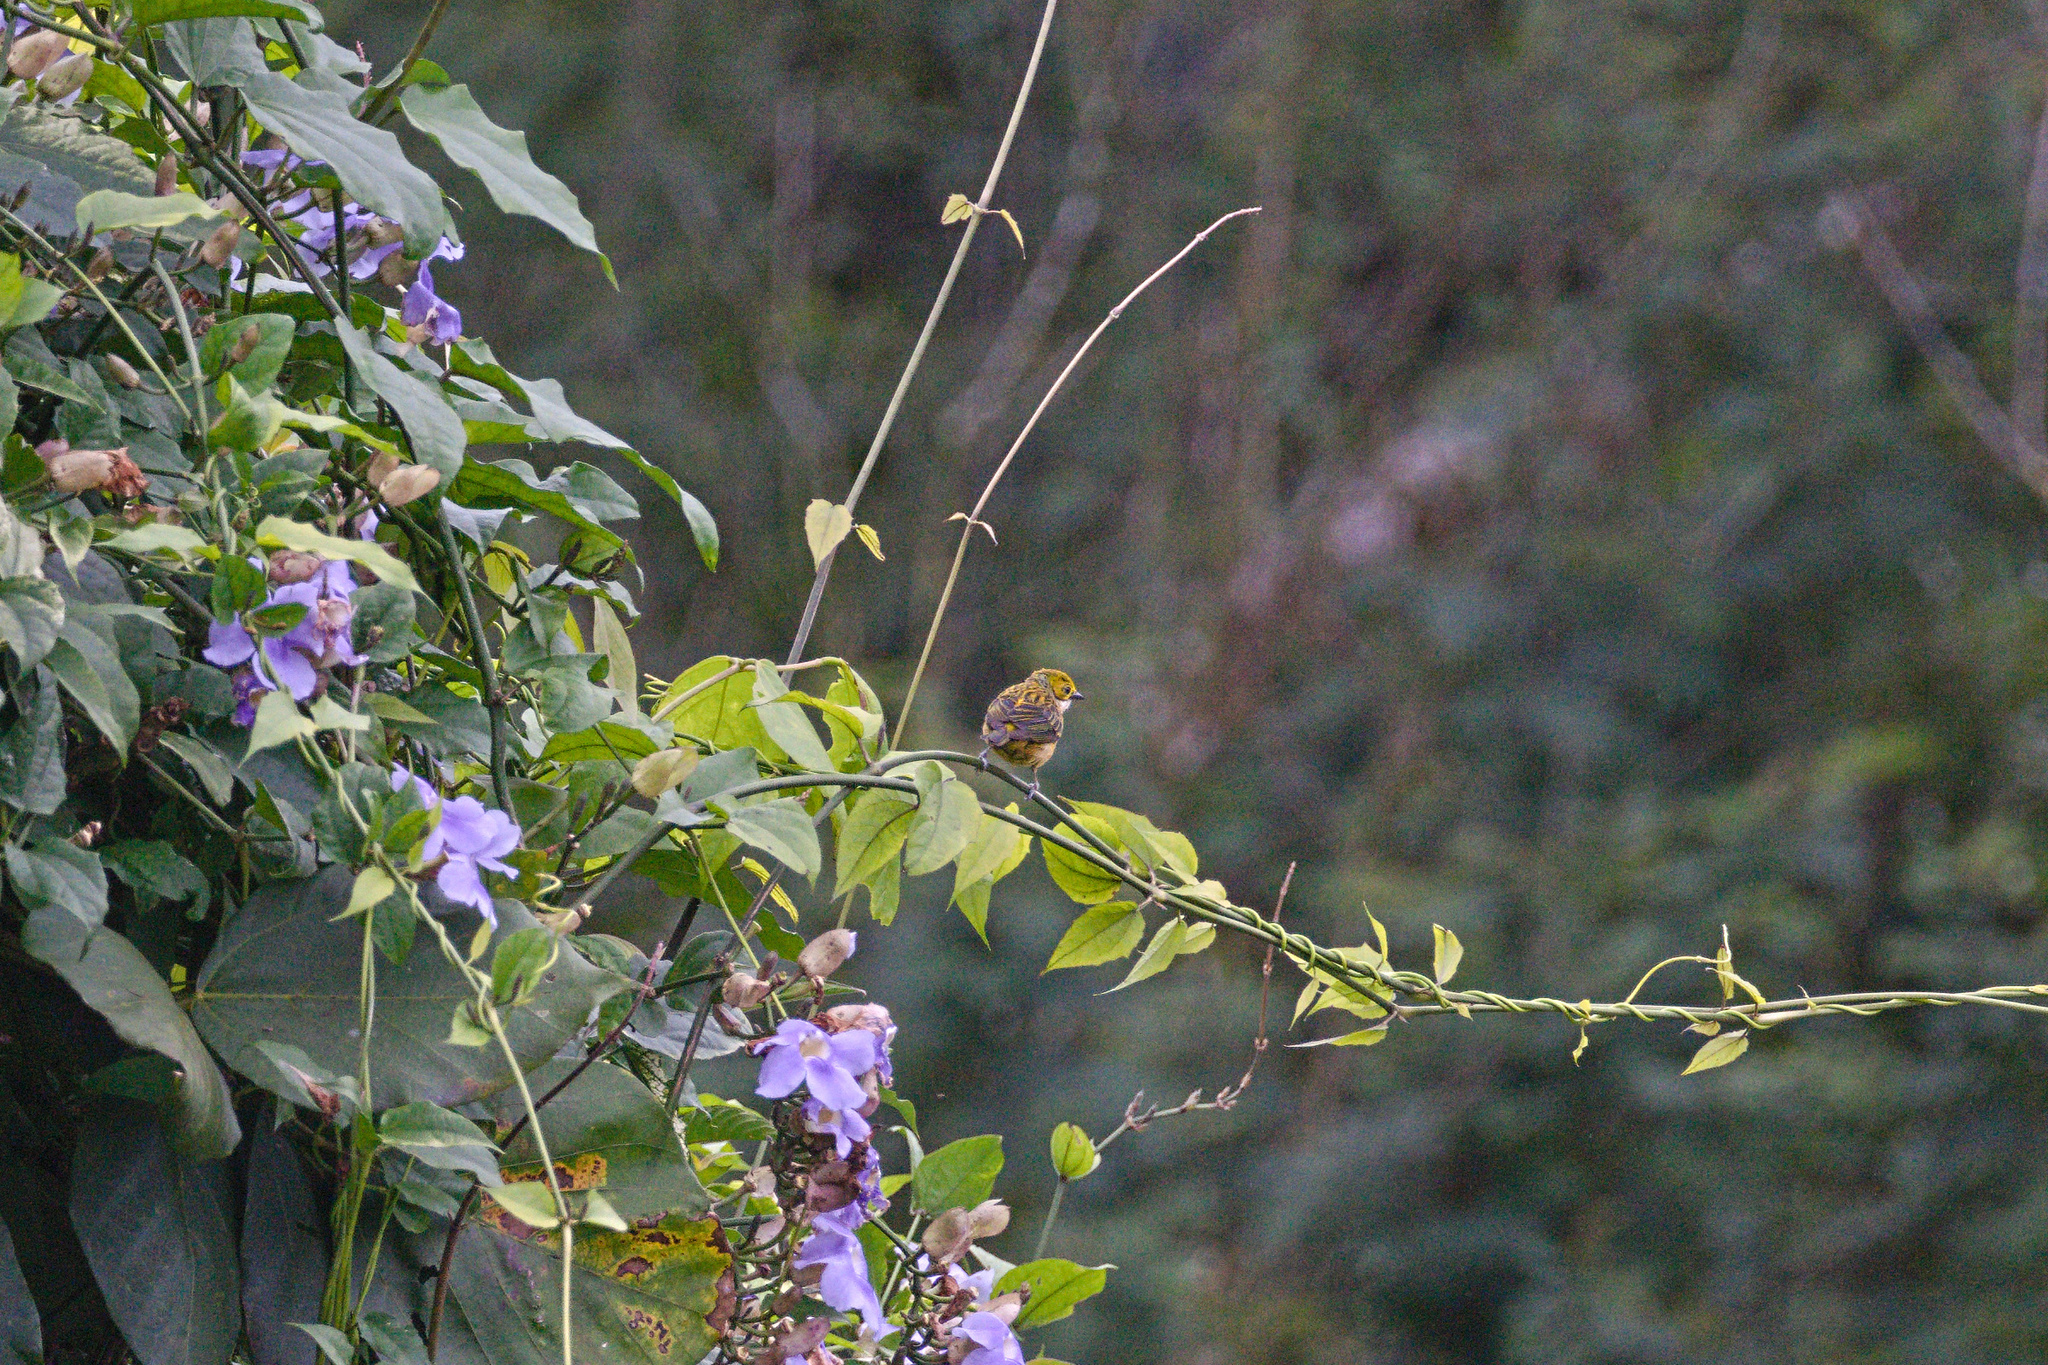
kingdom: Animalia
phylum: Chordata
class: Aves
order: Passeriformes
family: Thraupidae
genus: Tangara
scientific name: Tangara icterocephala
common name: Silver-throated tanager
